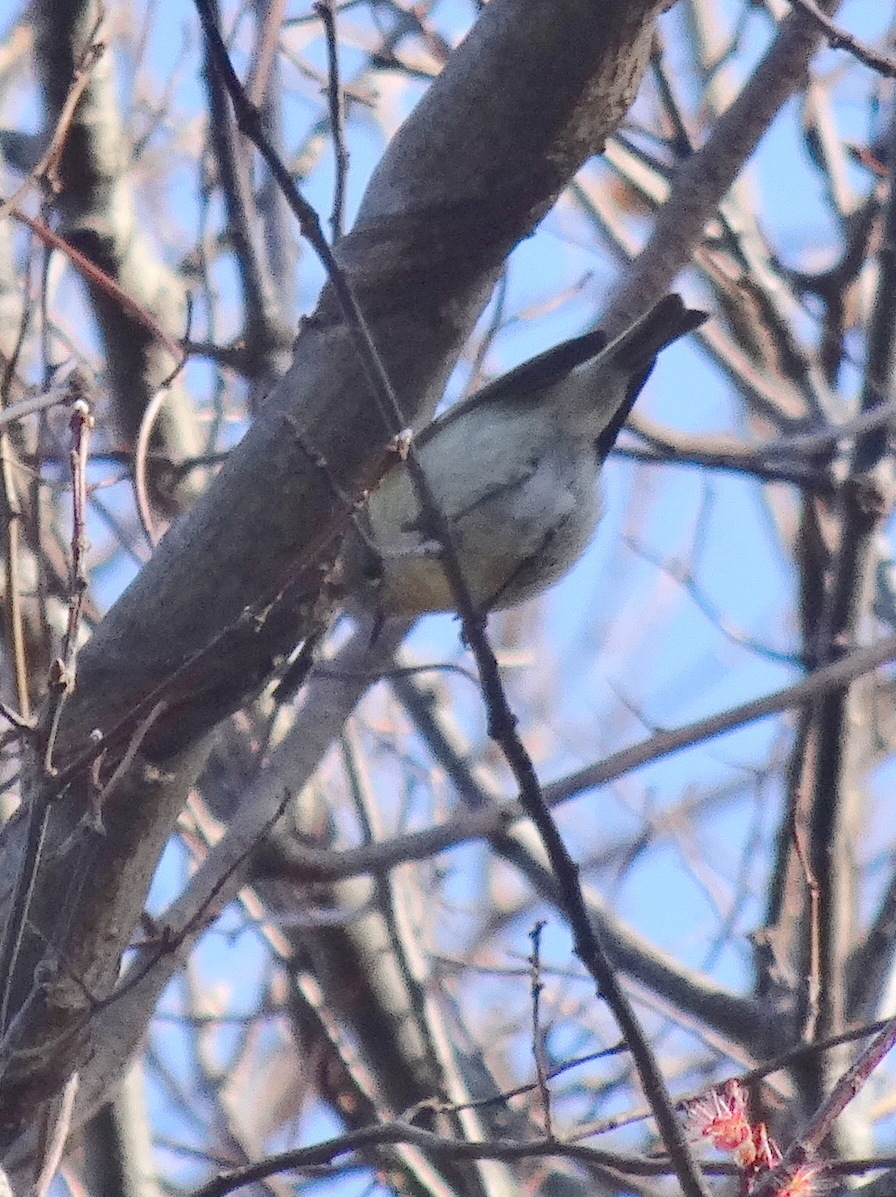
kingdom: Animalia
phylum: Chordata
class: Aves
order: Passeriformes
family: Regulidae
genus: Regulus
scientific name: Regulus calendula
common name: Ruby-crowned kinglet
